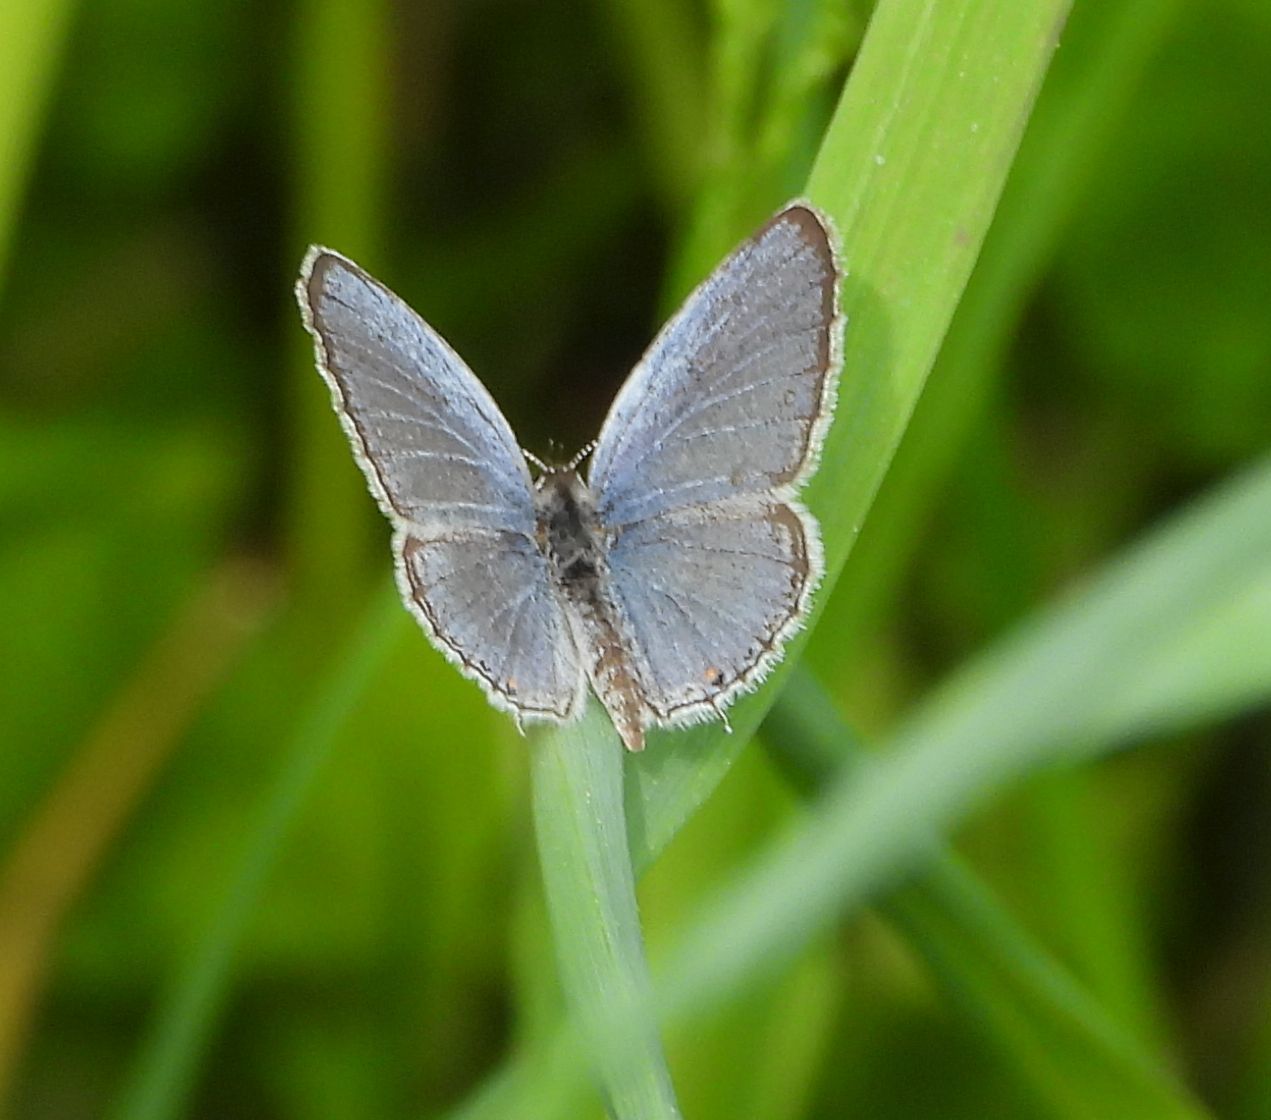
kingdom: Animalia
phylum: Arthropoda
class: Insecta
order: Lepidoptera
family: Lycaenidae
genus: Elkalyce
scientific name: Elkalyce comyntas
